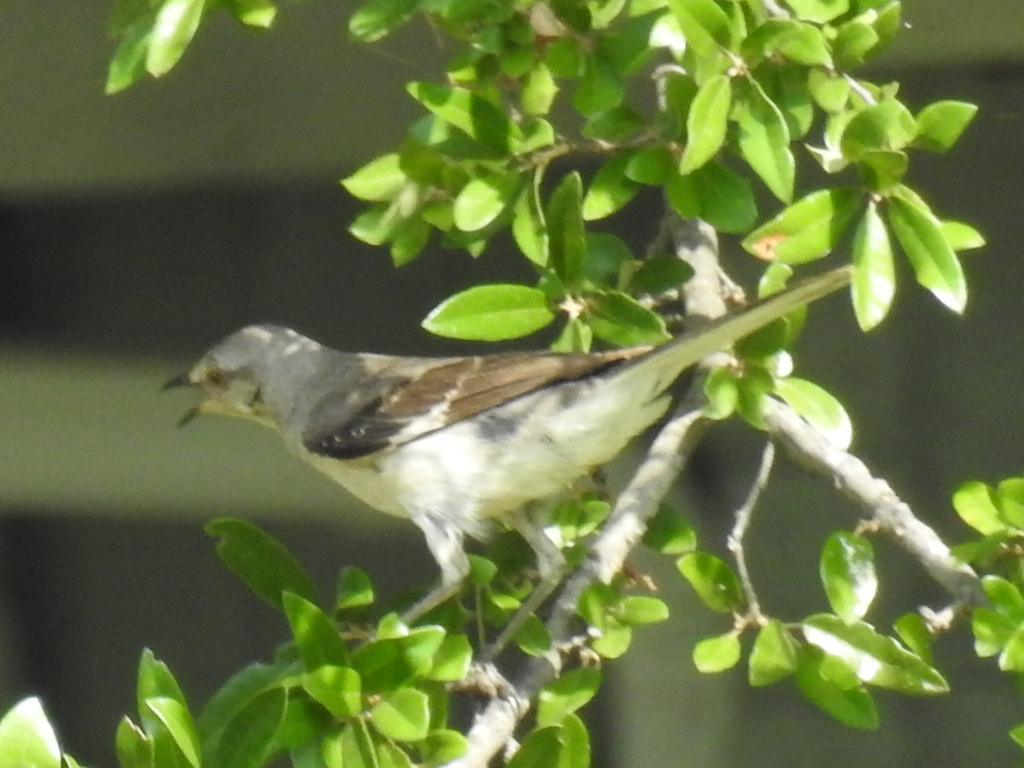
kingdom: Animalia
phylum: Chordata
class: Aves
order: Passeriformes
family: Mimidae
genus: Mimus
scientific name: Mimus polyglottos
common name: Northern mockingbird
